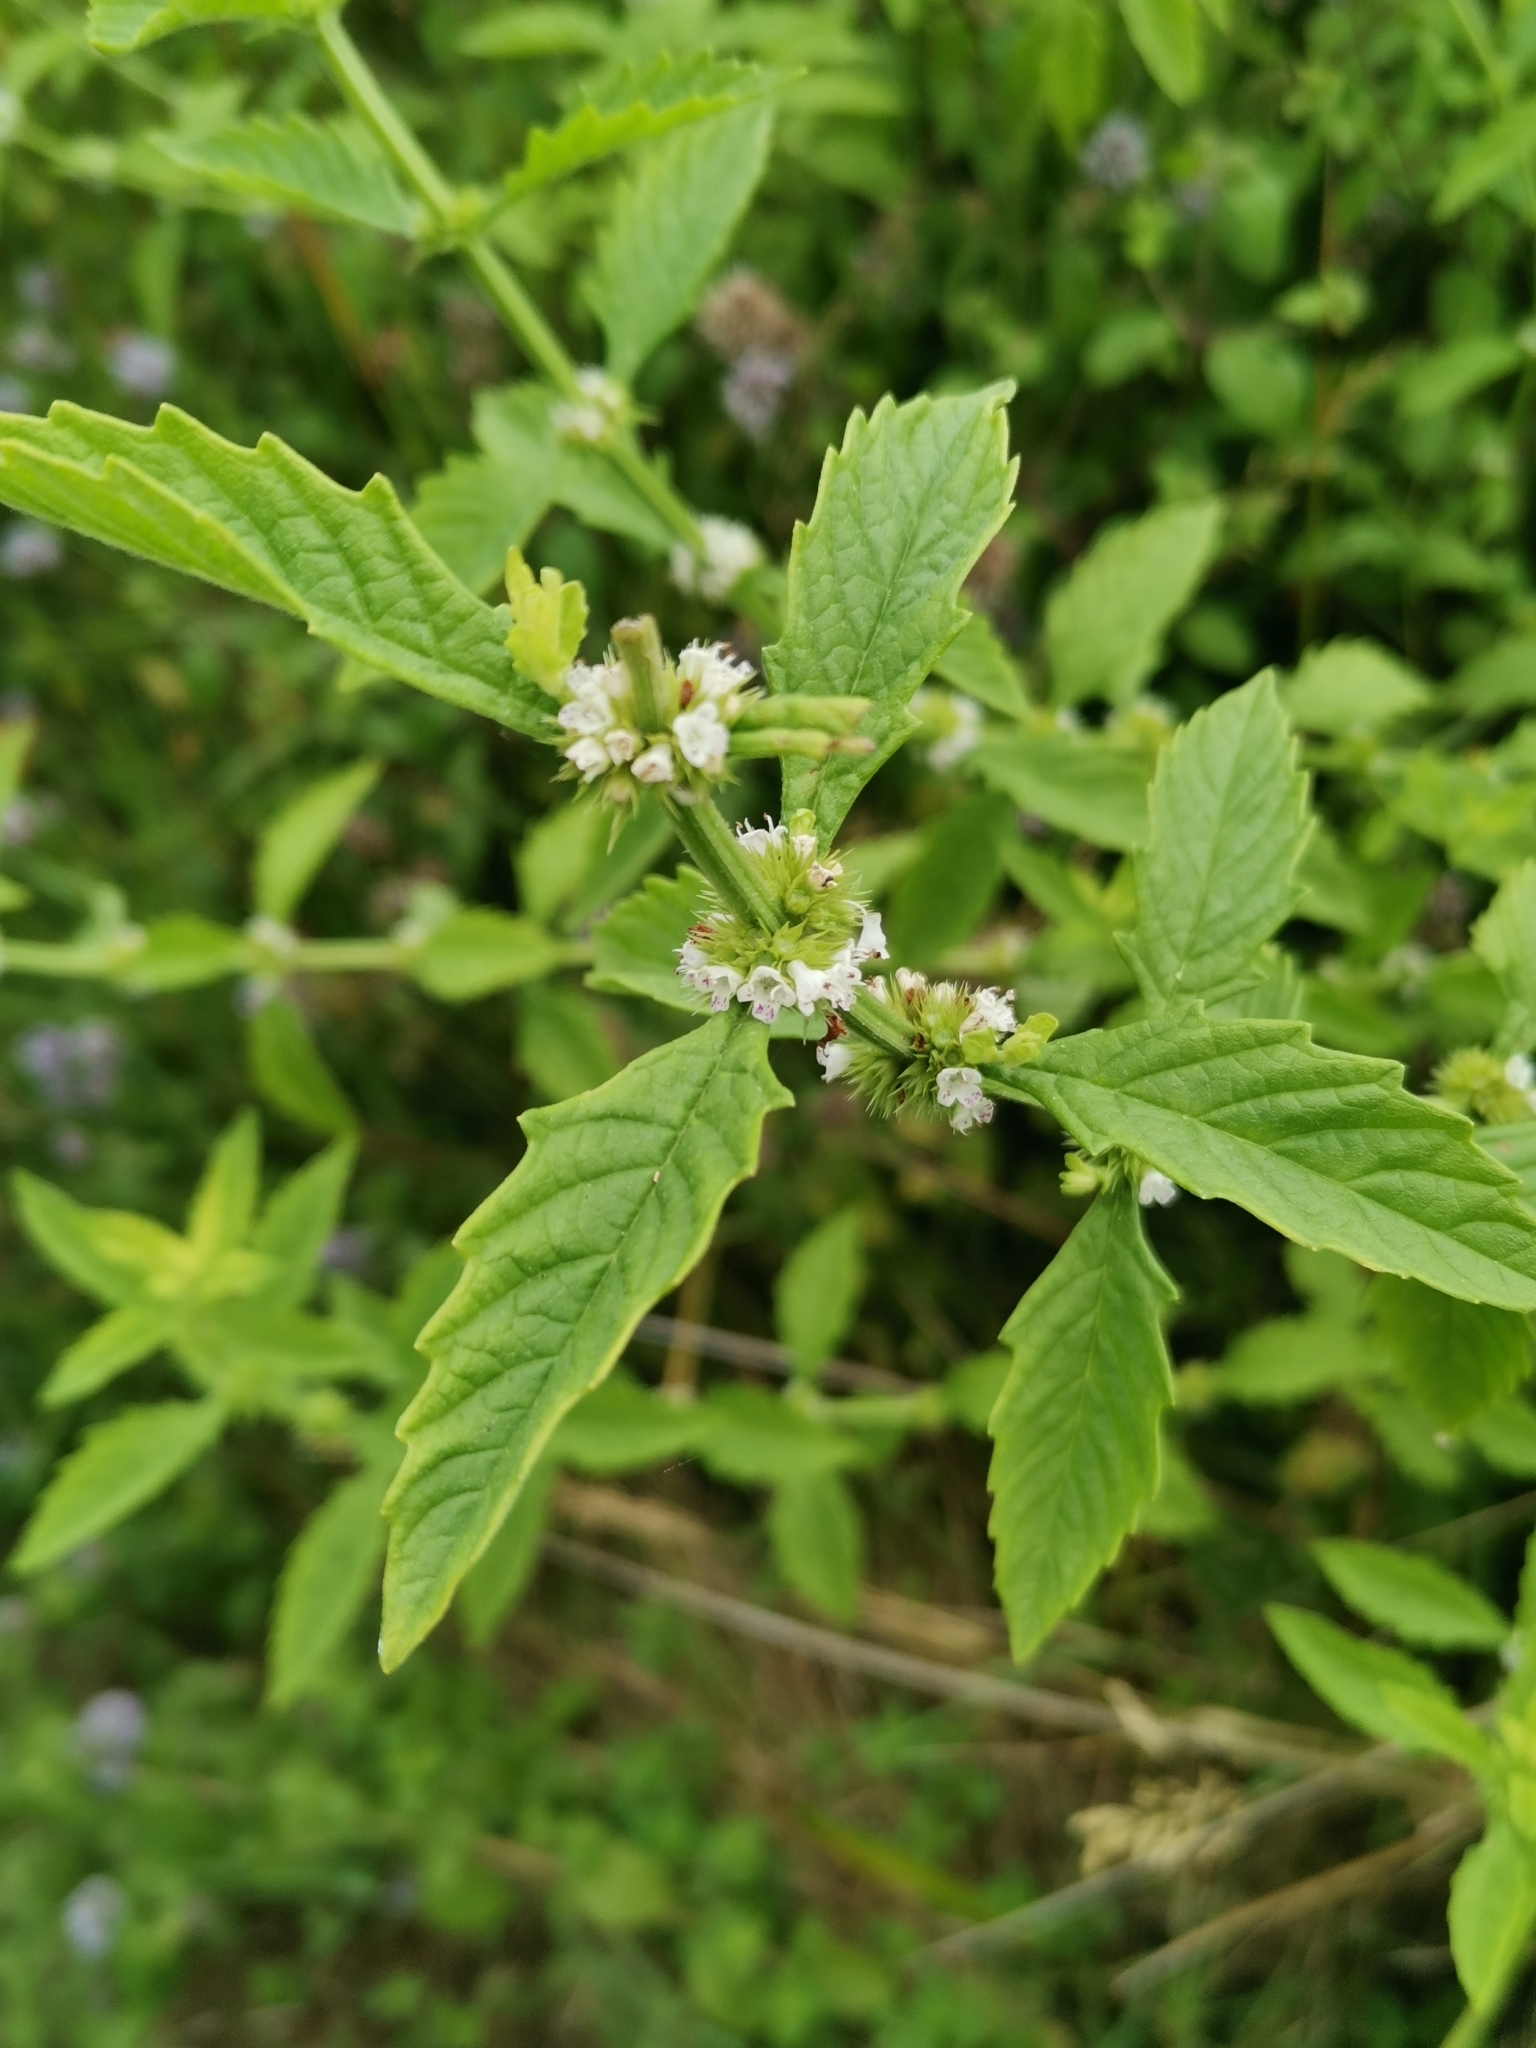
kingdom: Plantae
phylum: Tracheophyta
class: Magnoliopsida
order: Lamiales
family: Lamiaceae
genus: Lycopus
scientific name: Lycopus europaeus
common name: European bugleweed
